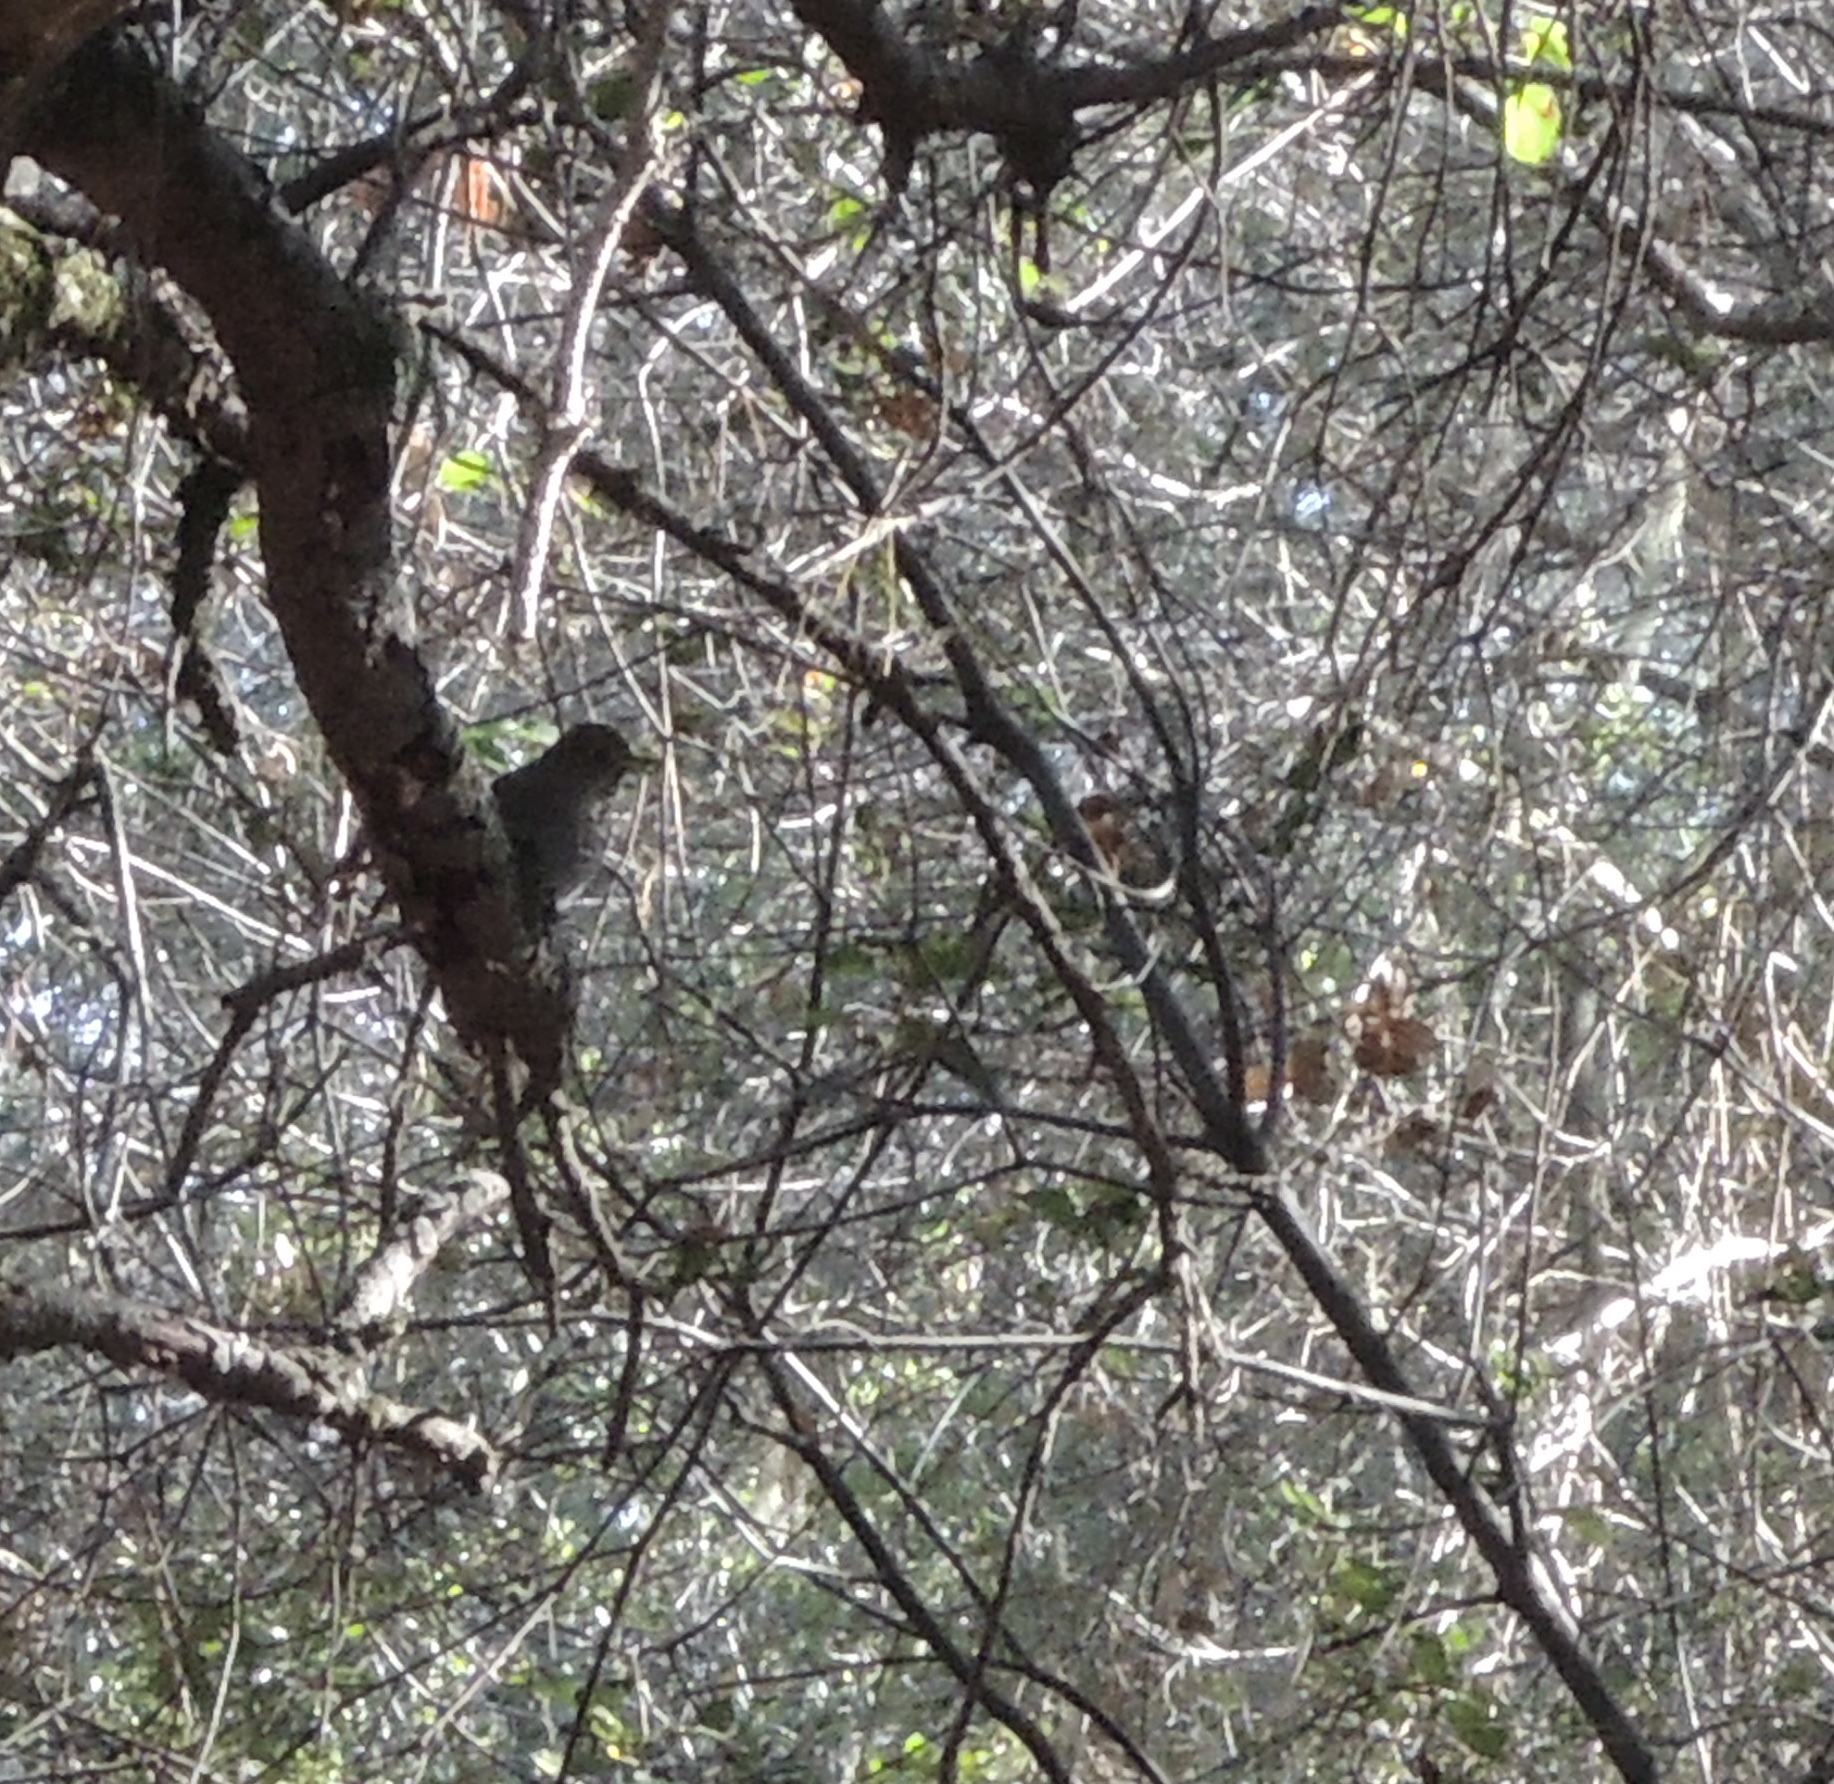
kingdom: Animalia
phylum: Chordata
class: Aves
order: Passeriformes
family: Turdidae
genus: Catharus
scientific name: Catharus guttatus
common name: Hermit thrush
